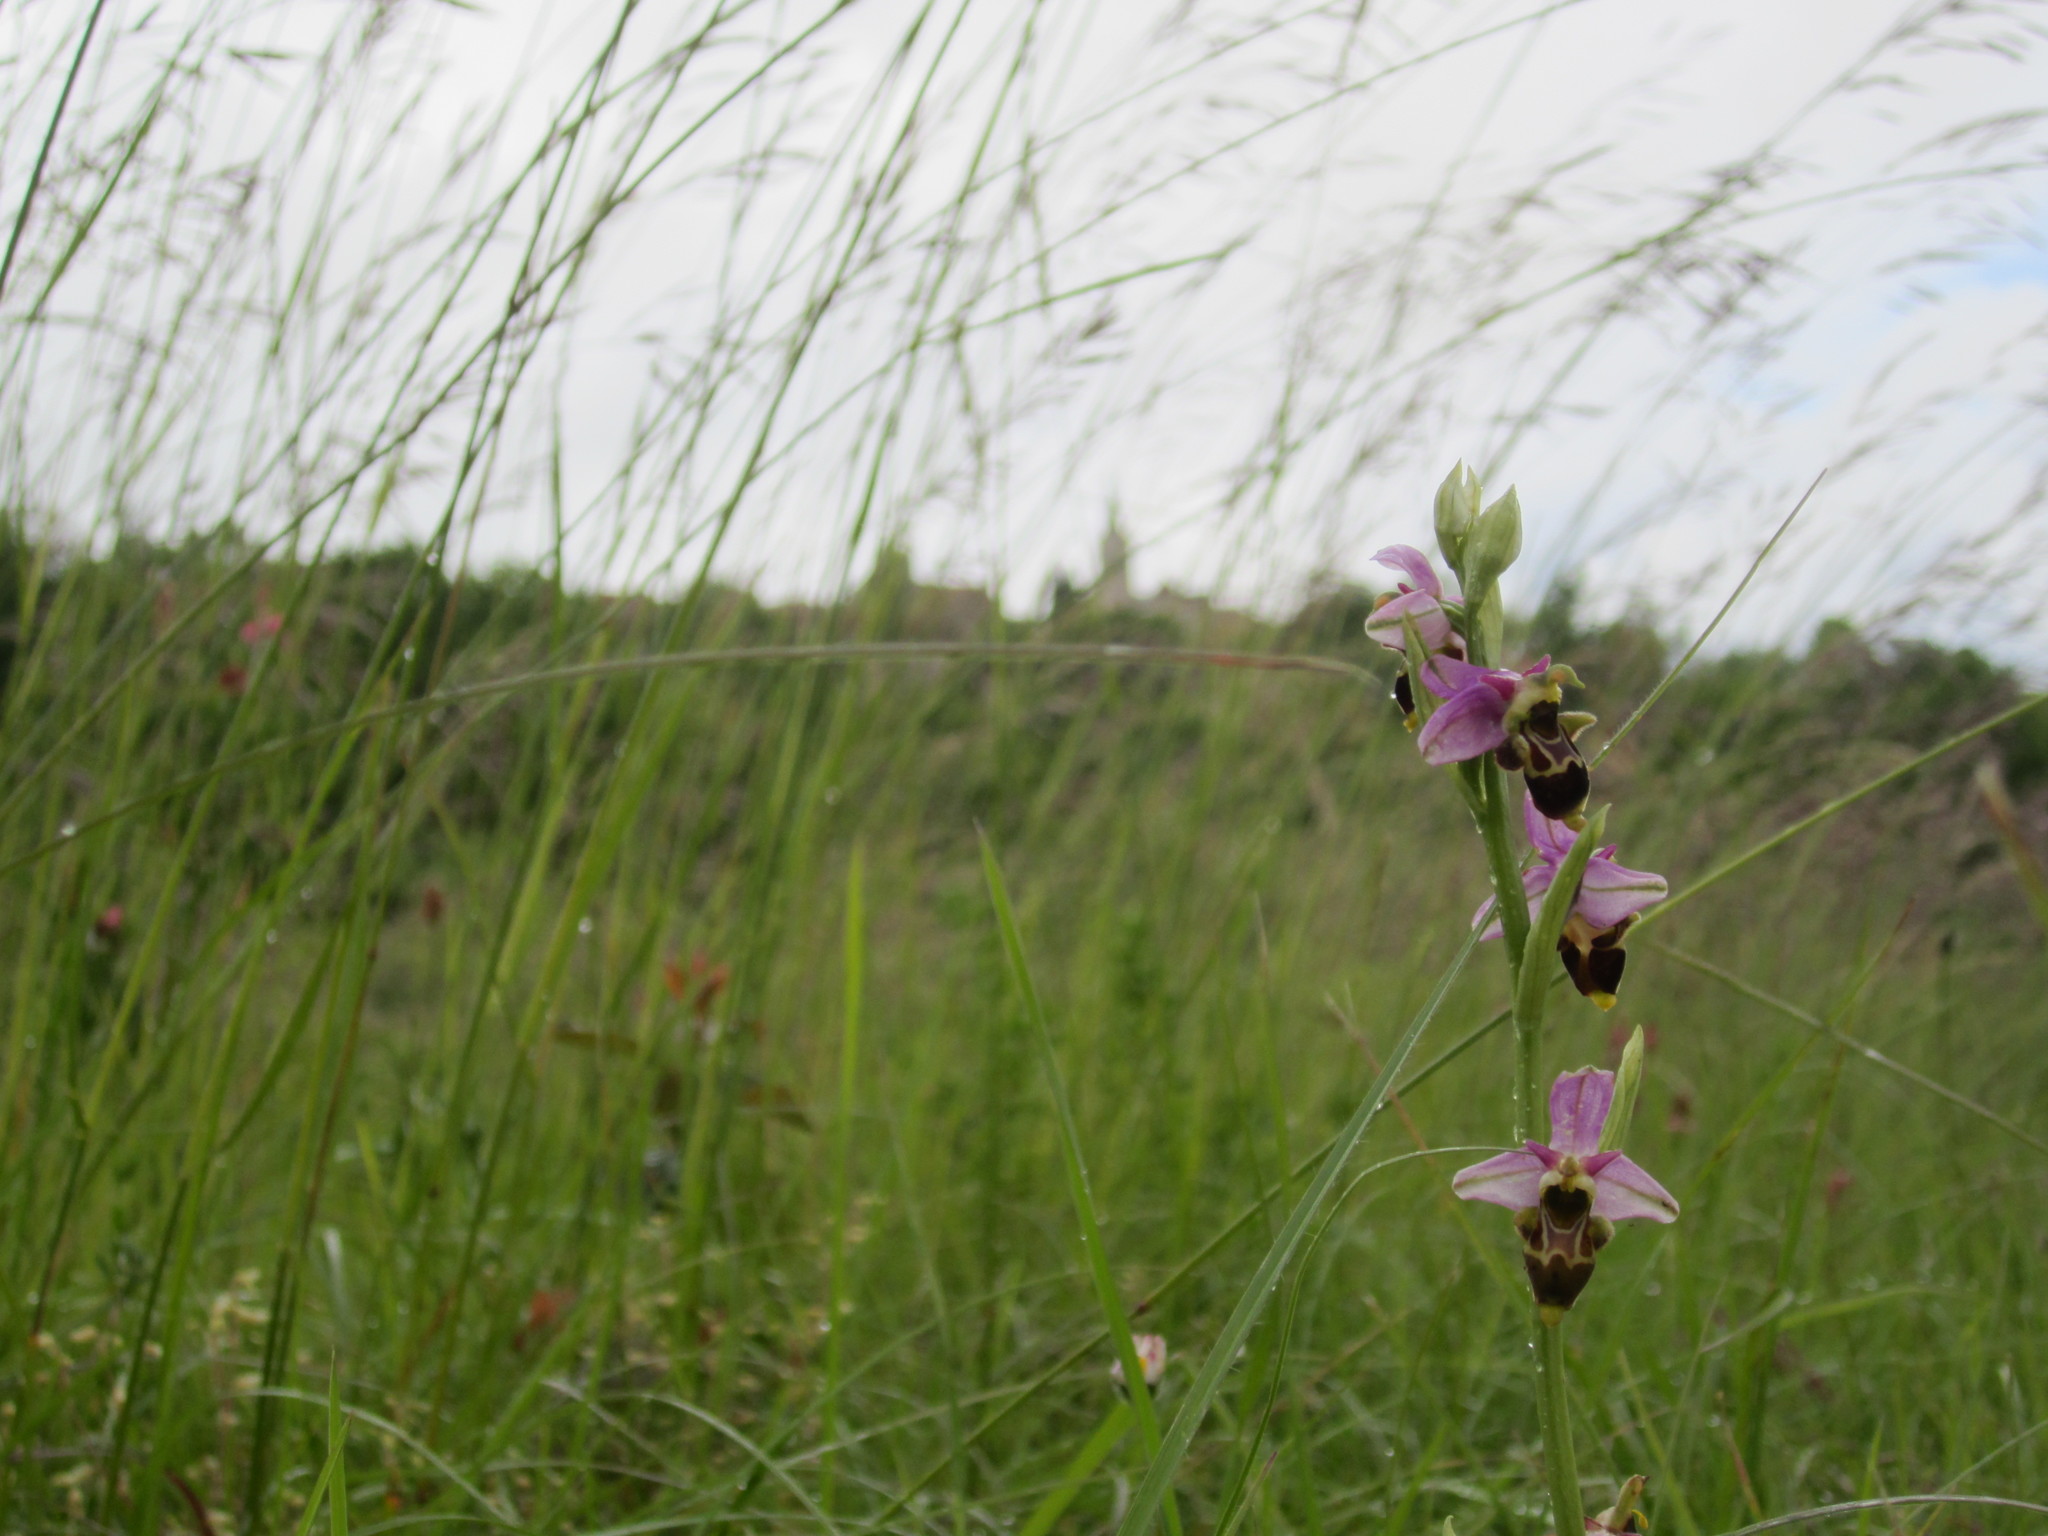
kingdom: Plantae
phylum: Tracheophyta
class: Liliopsida
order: Asparagales
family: Orchidaceae
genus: Ophrys
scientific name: Ophrys scolopax
